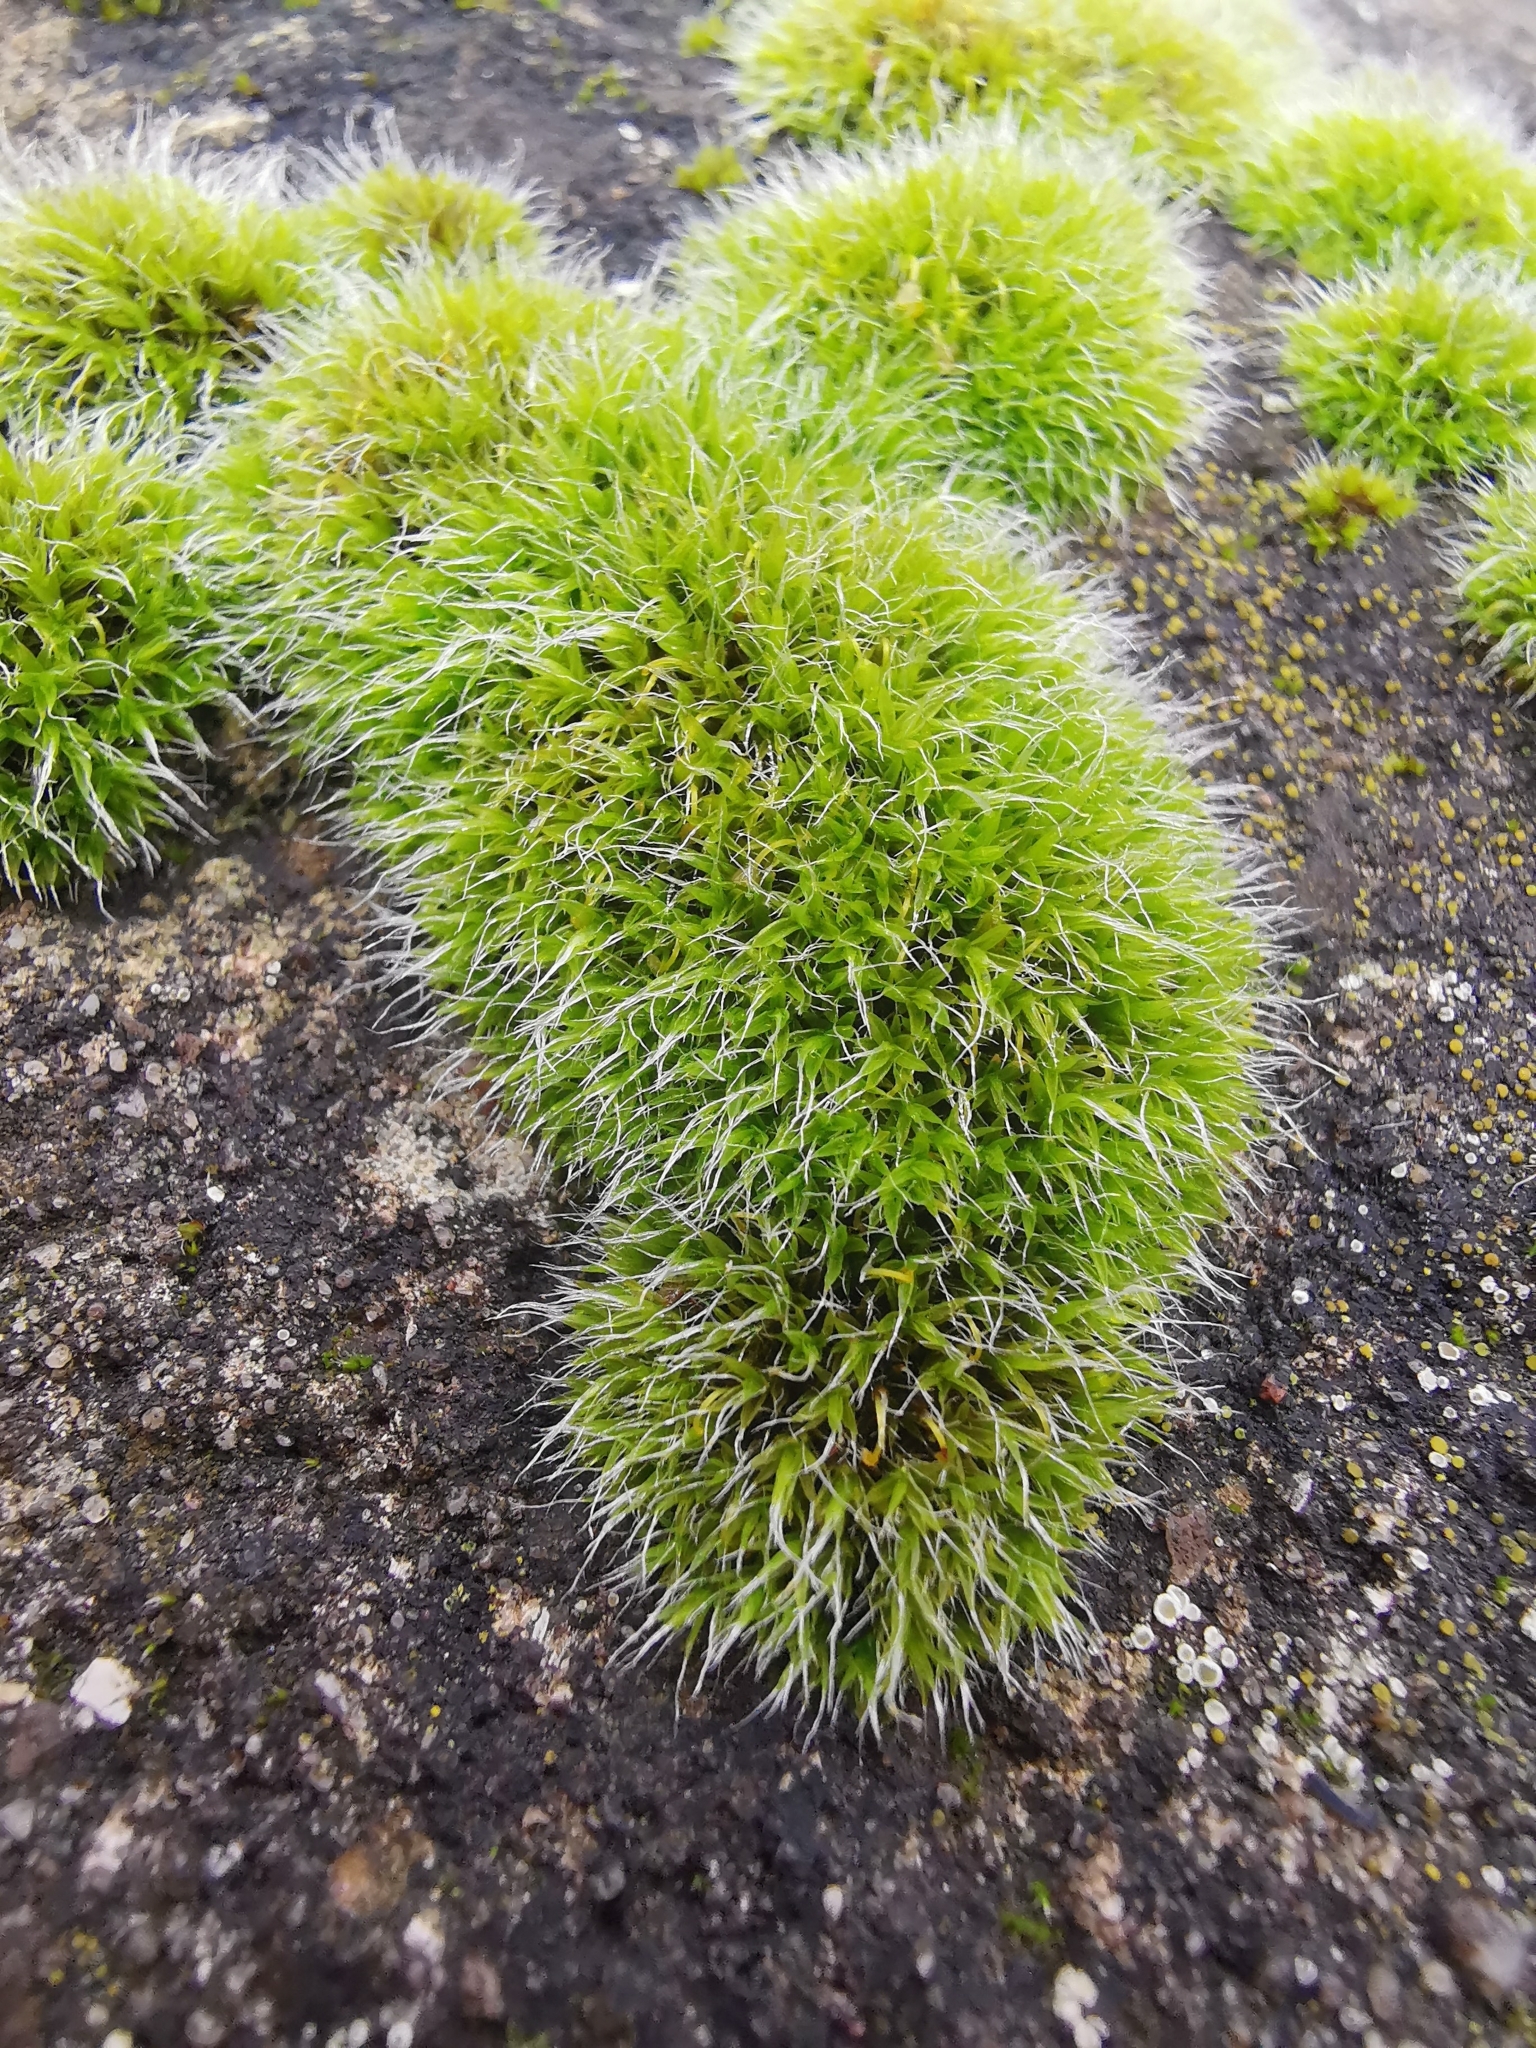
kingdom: Plantae
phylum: Bryophyta
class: Bryopsida
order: Grimmiales
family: Grimmiaceae
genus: Grimmia
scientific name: Grimmia pulvinata
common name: Grey-cushioned grimmia
